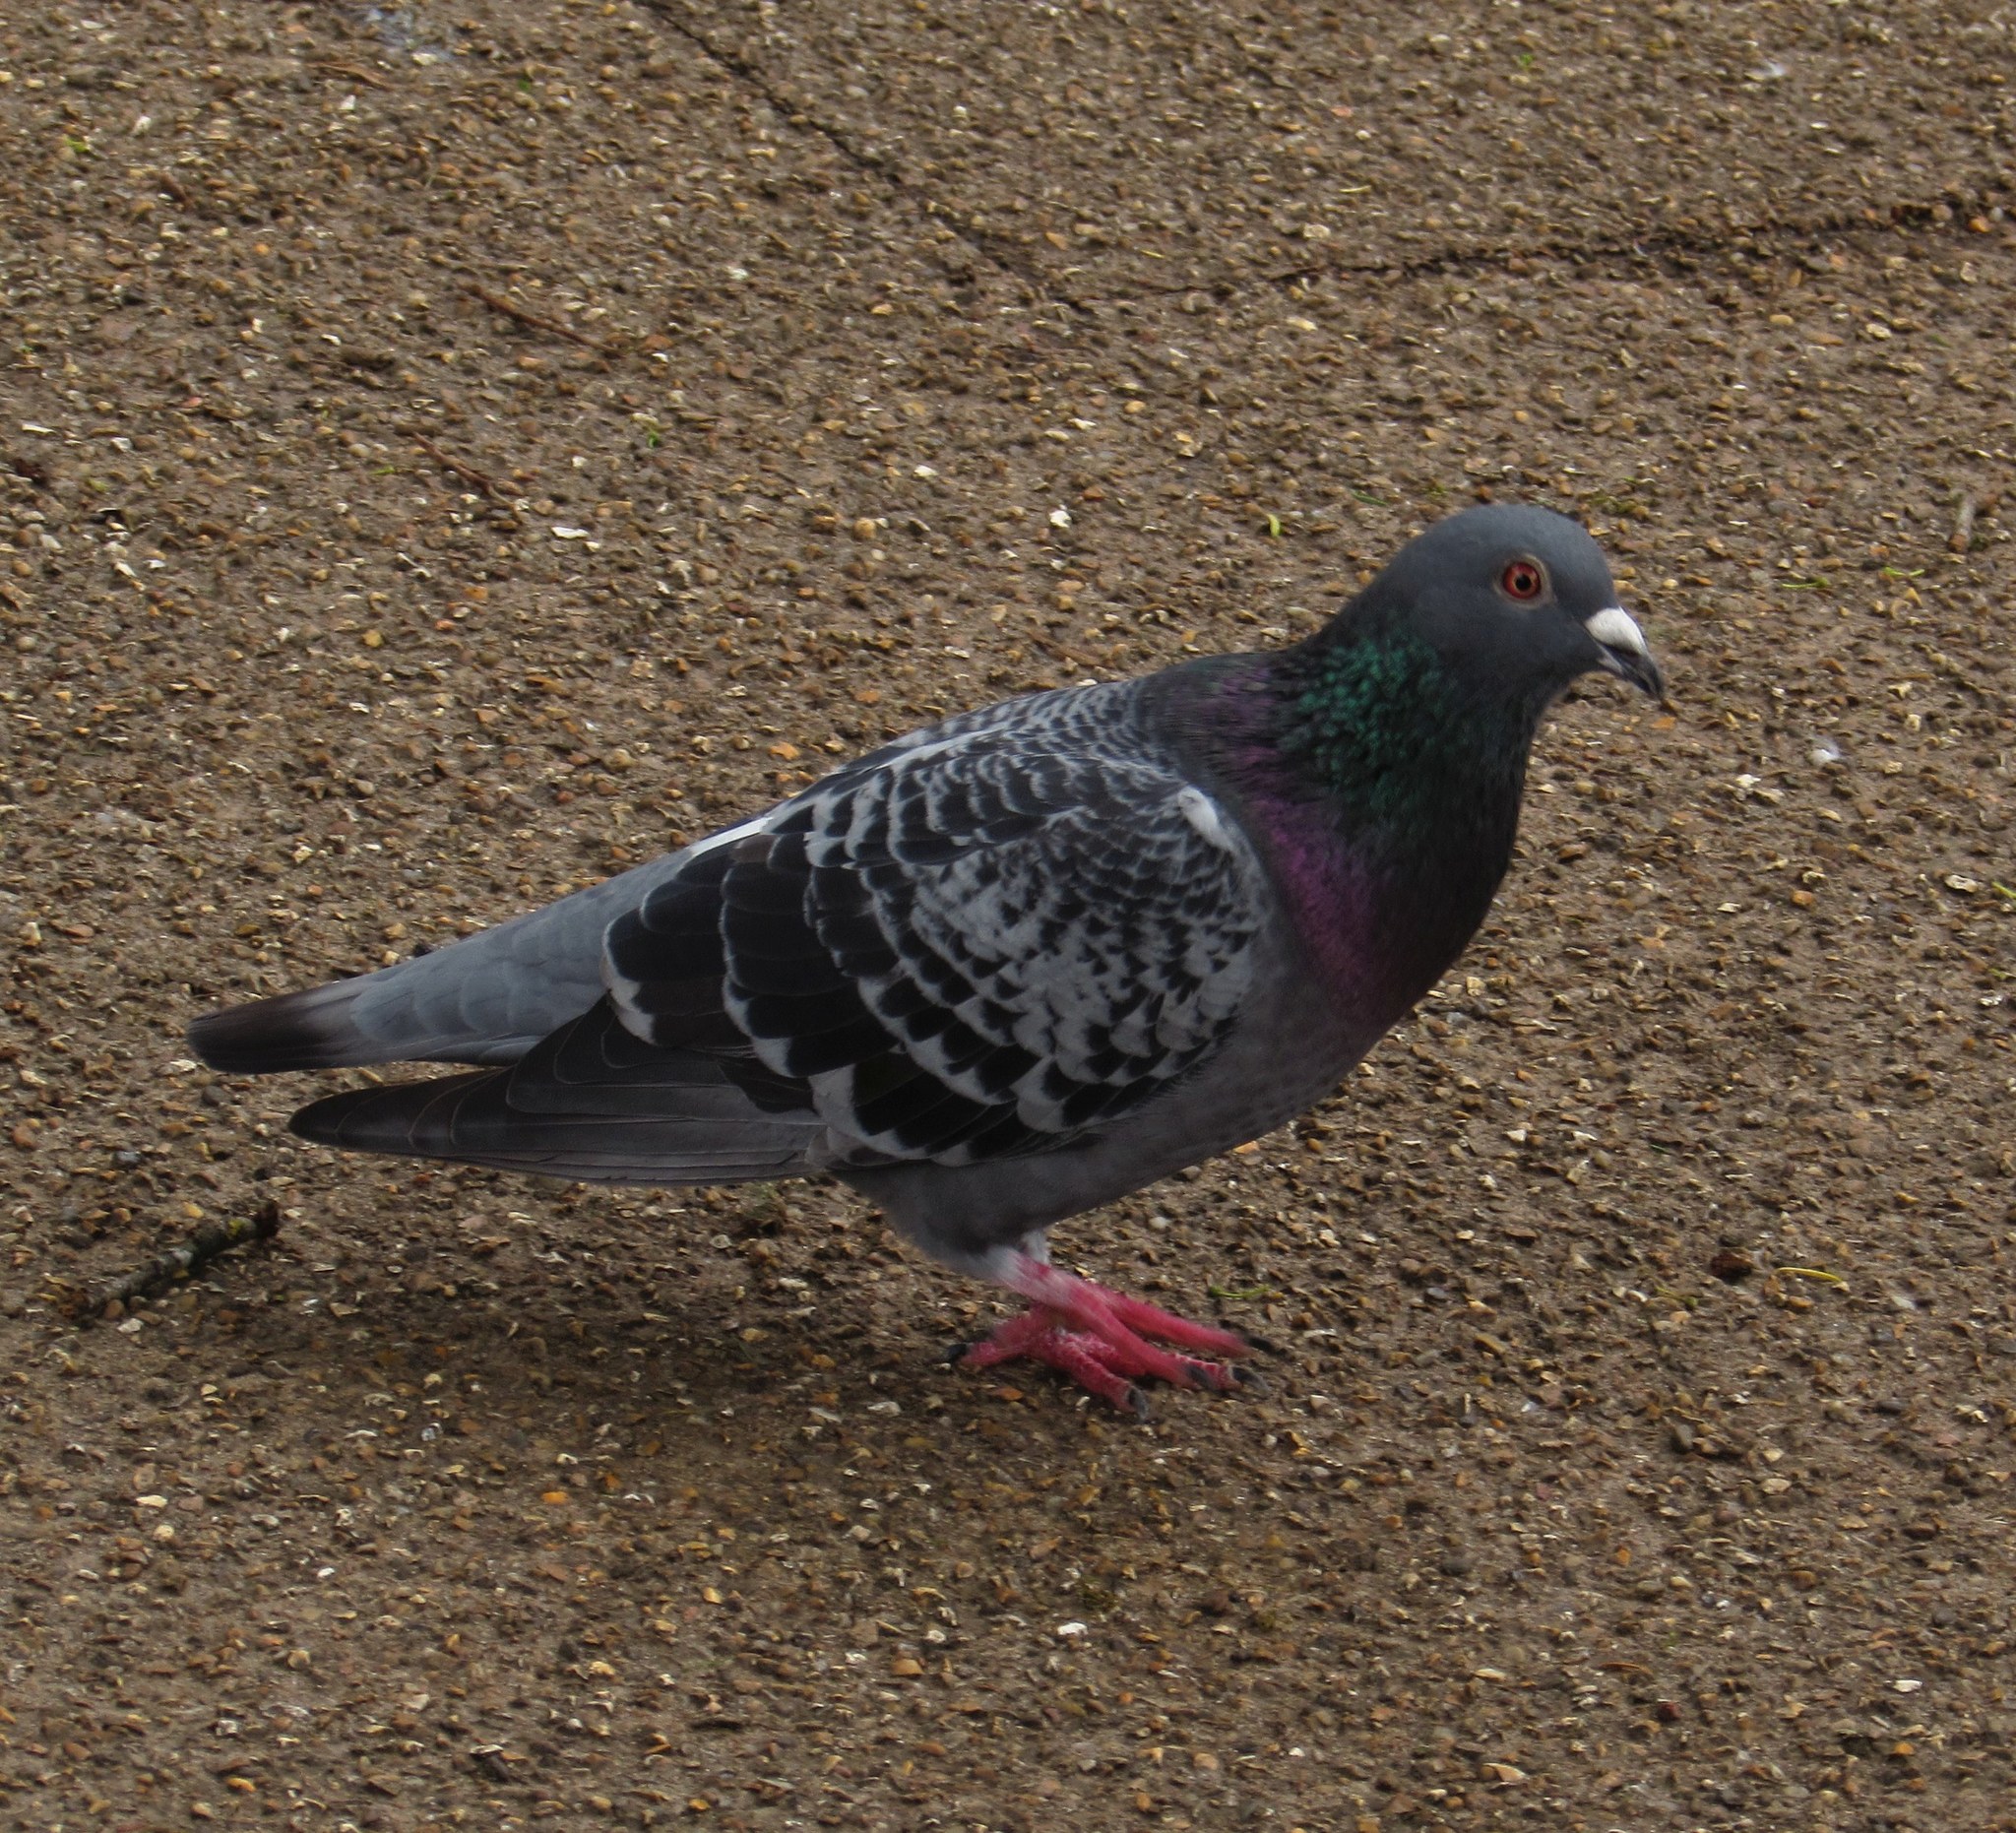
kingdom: Animalia
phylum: Chordata
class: Aves
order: Columbiformes
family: Columbidae
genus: Columba
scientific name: Columba livia
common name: Rock pigeon
